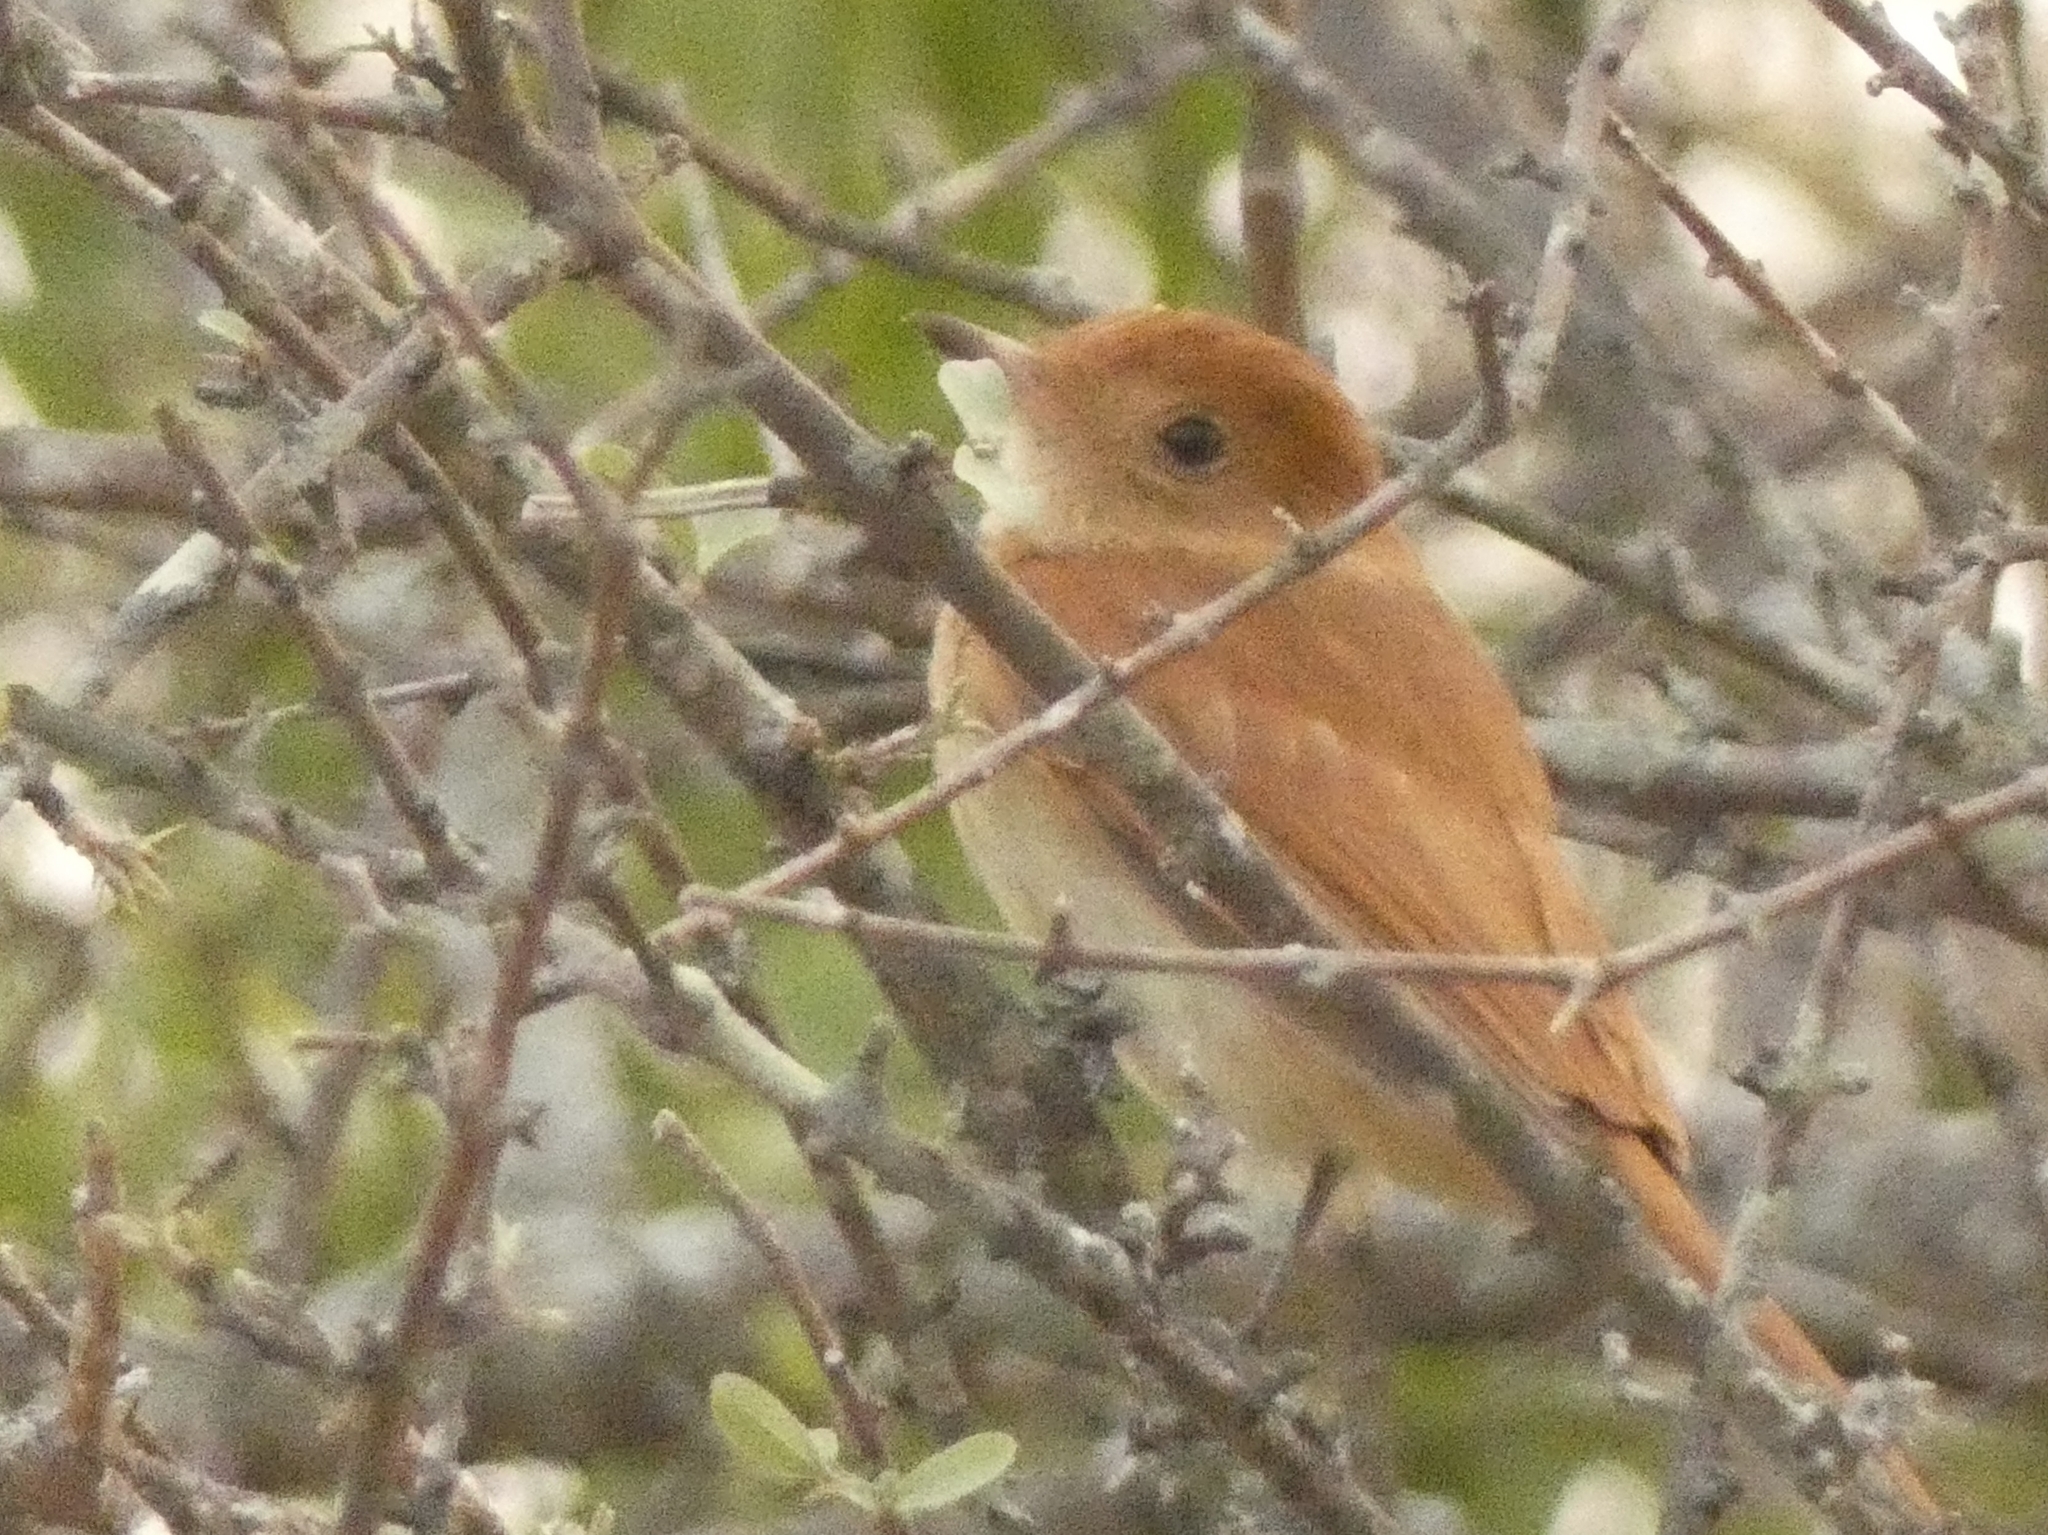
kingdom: Animalia
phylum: Chordata
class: Aves
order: Passeriformes
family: Tyrannidae
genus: Casiornis
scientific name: Casiornis rufus
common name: Rufous casiornis
